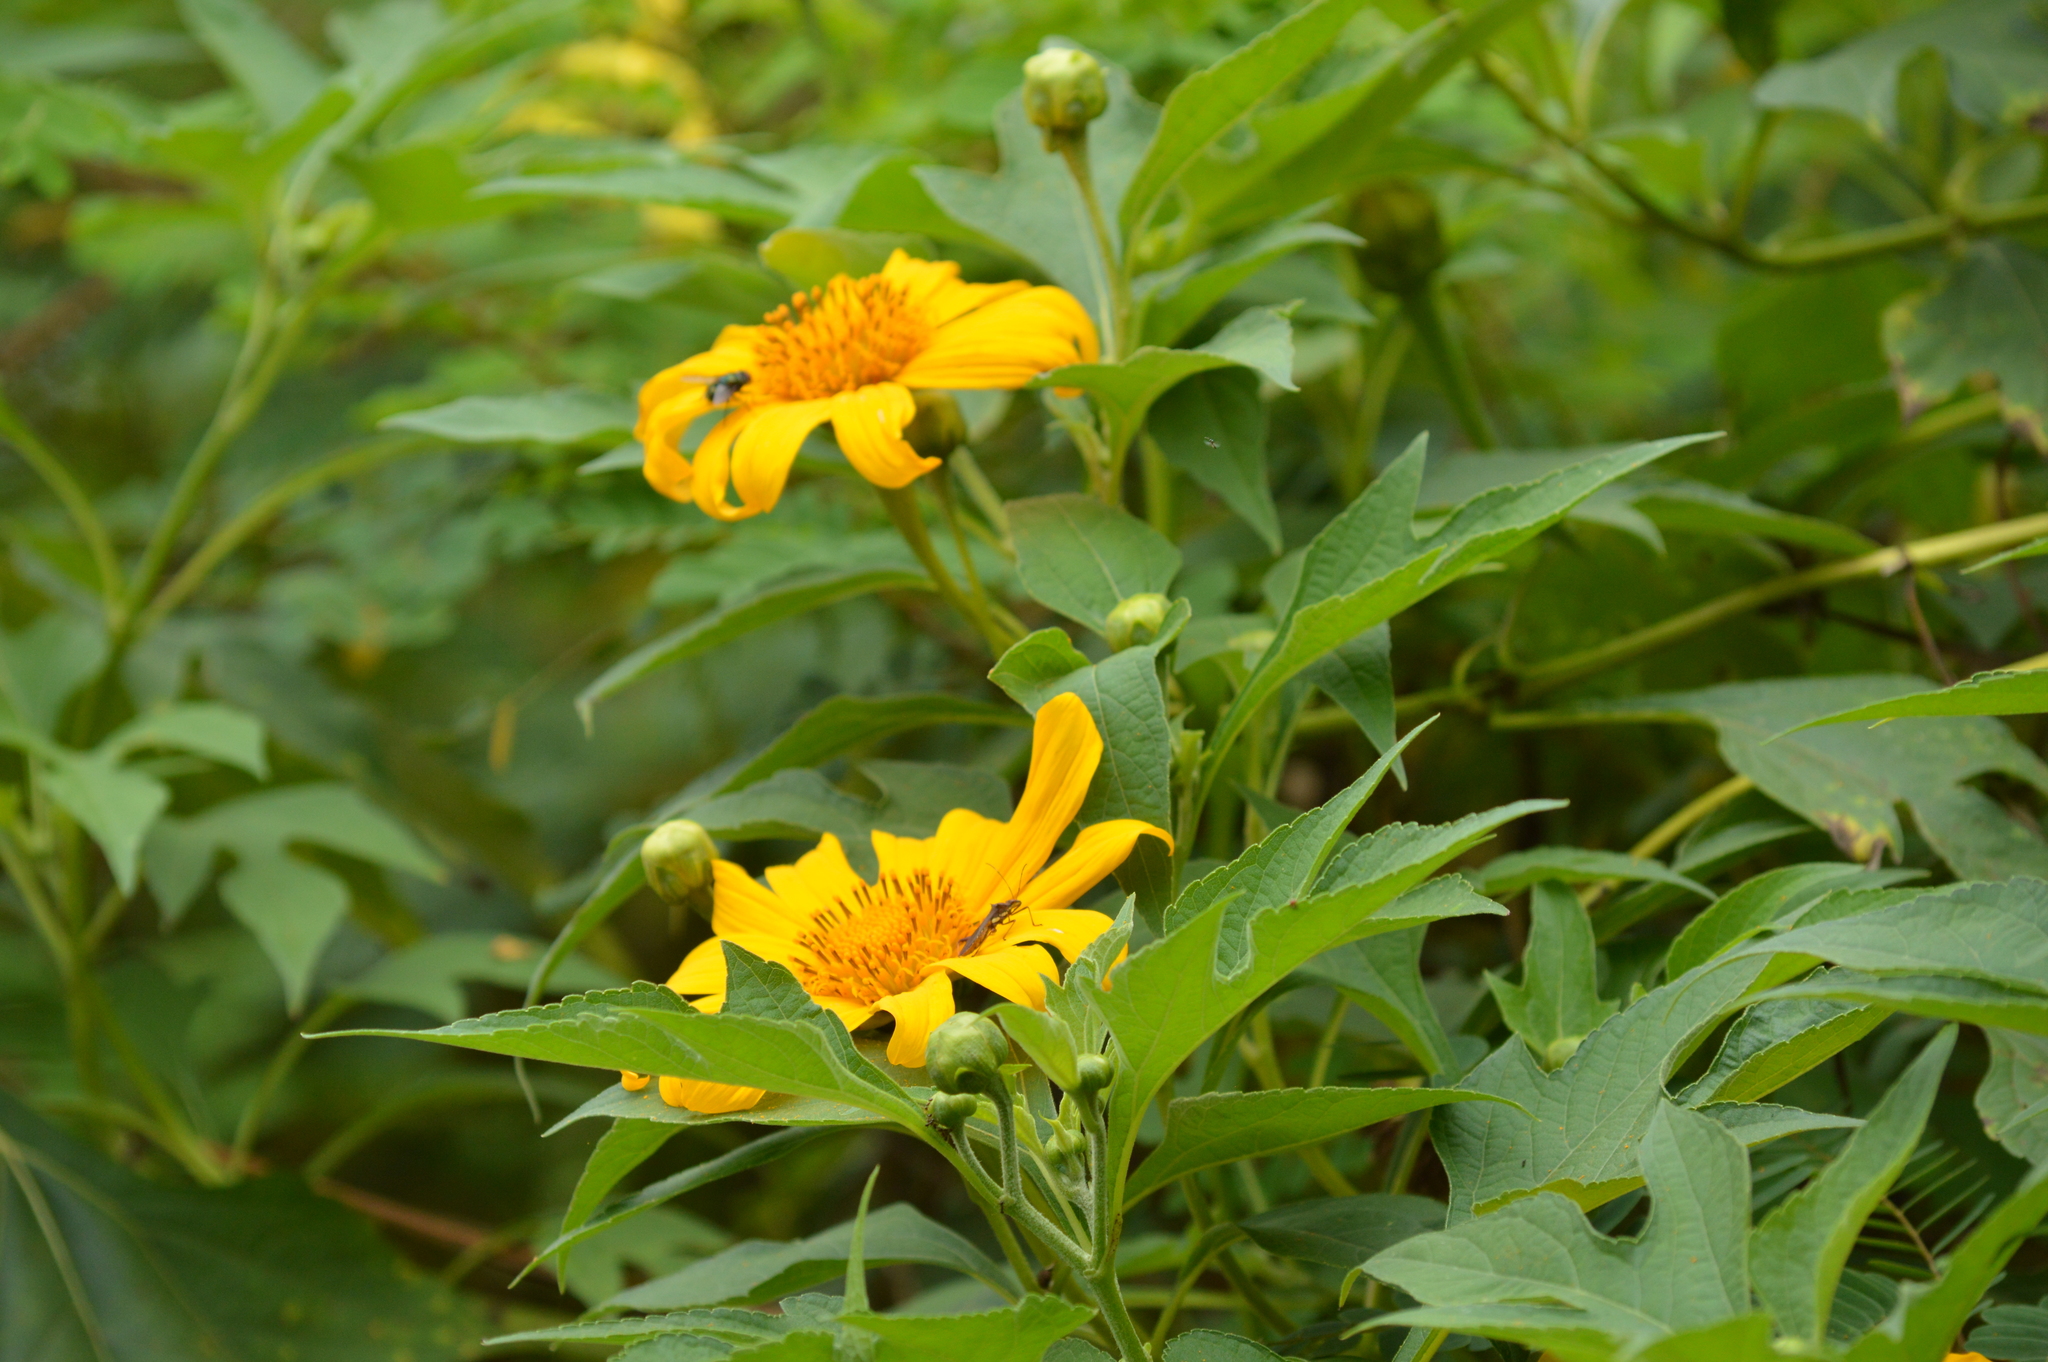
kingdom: Plantae
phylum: Tracheophyta
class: Magnoliopsida
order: Asterales
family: Asteraceae
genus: Tithonia
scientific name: Tithonia diversifolia
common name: Tree marigold
